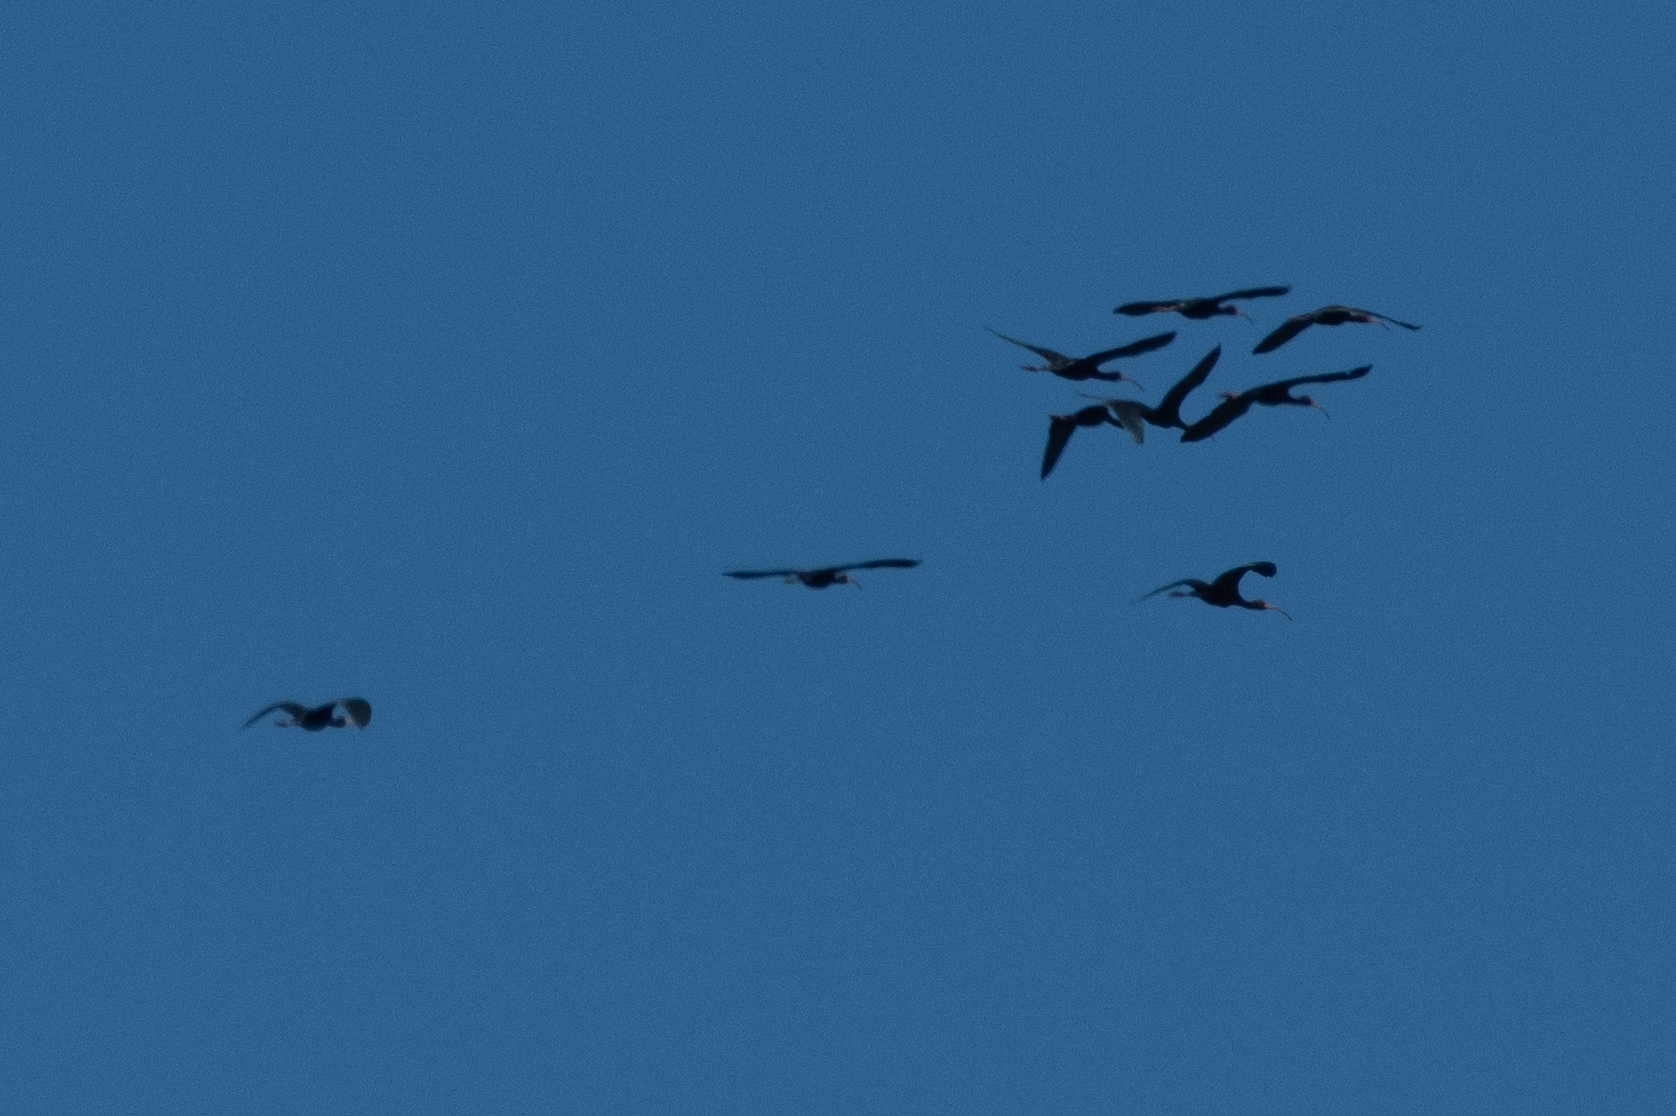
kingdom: Animalia
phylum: Chordata
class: Aves
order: Pelecaniformes
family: Threskiornithidae
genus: Plegadis
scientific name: Plegadis chihi
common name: White-faced ibis
